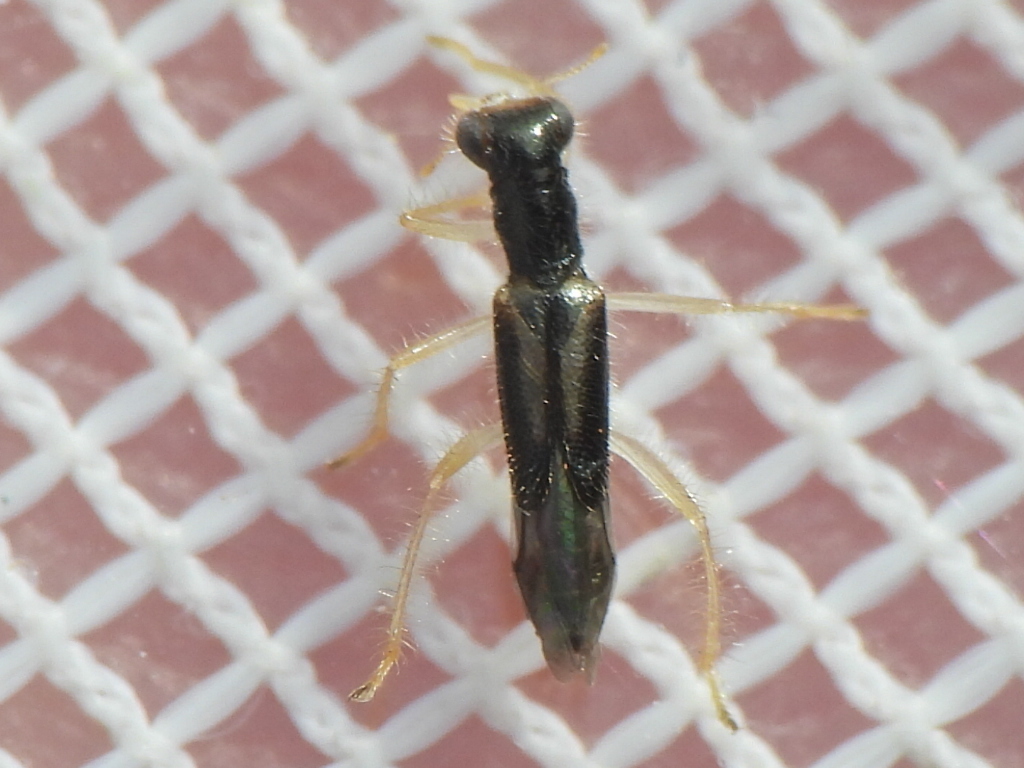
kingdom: Animalia
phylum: Arthropoda
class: Insecta
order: Coleoptera
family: Cleridae
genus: Isohydnocera
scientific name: Isohydnocera curtipennis
